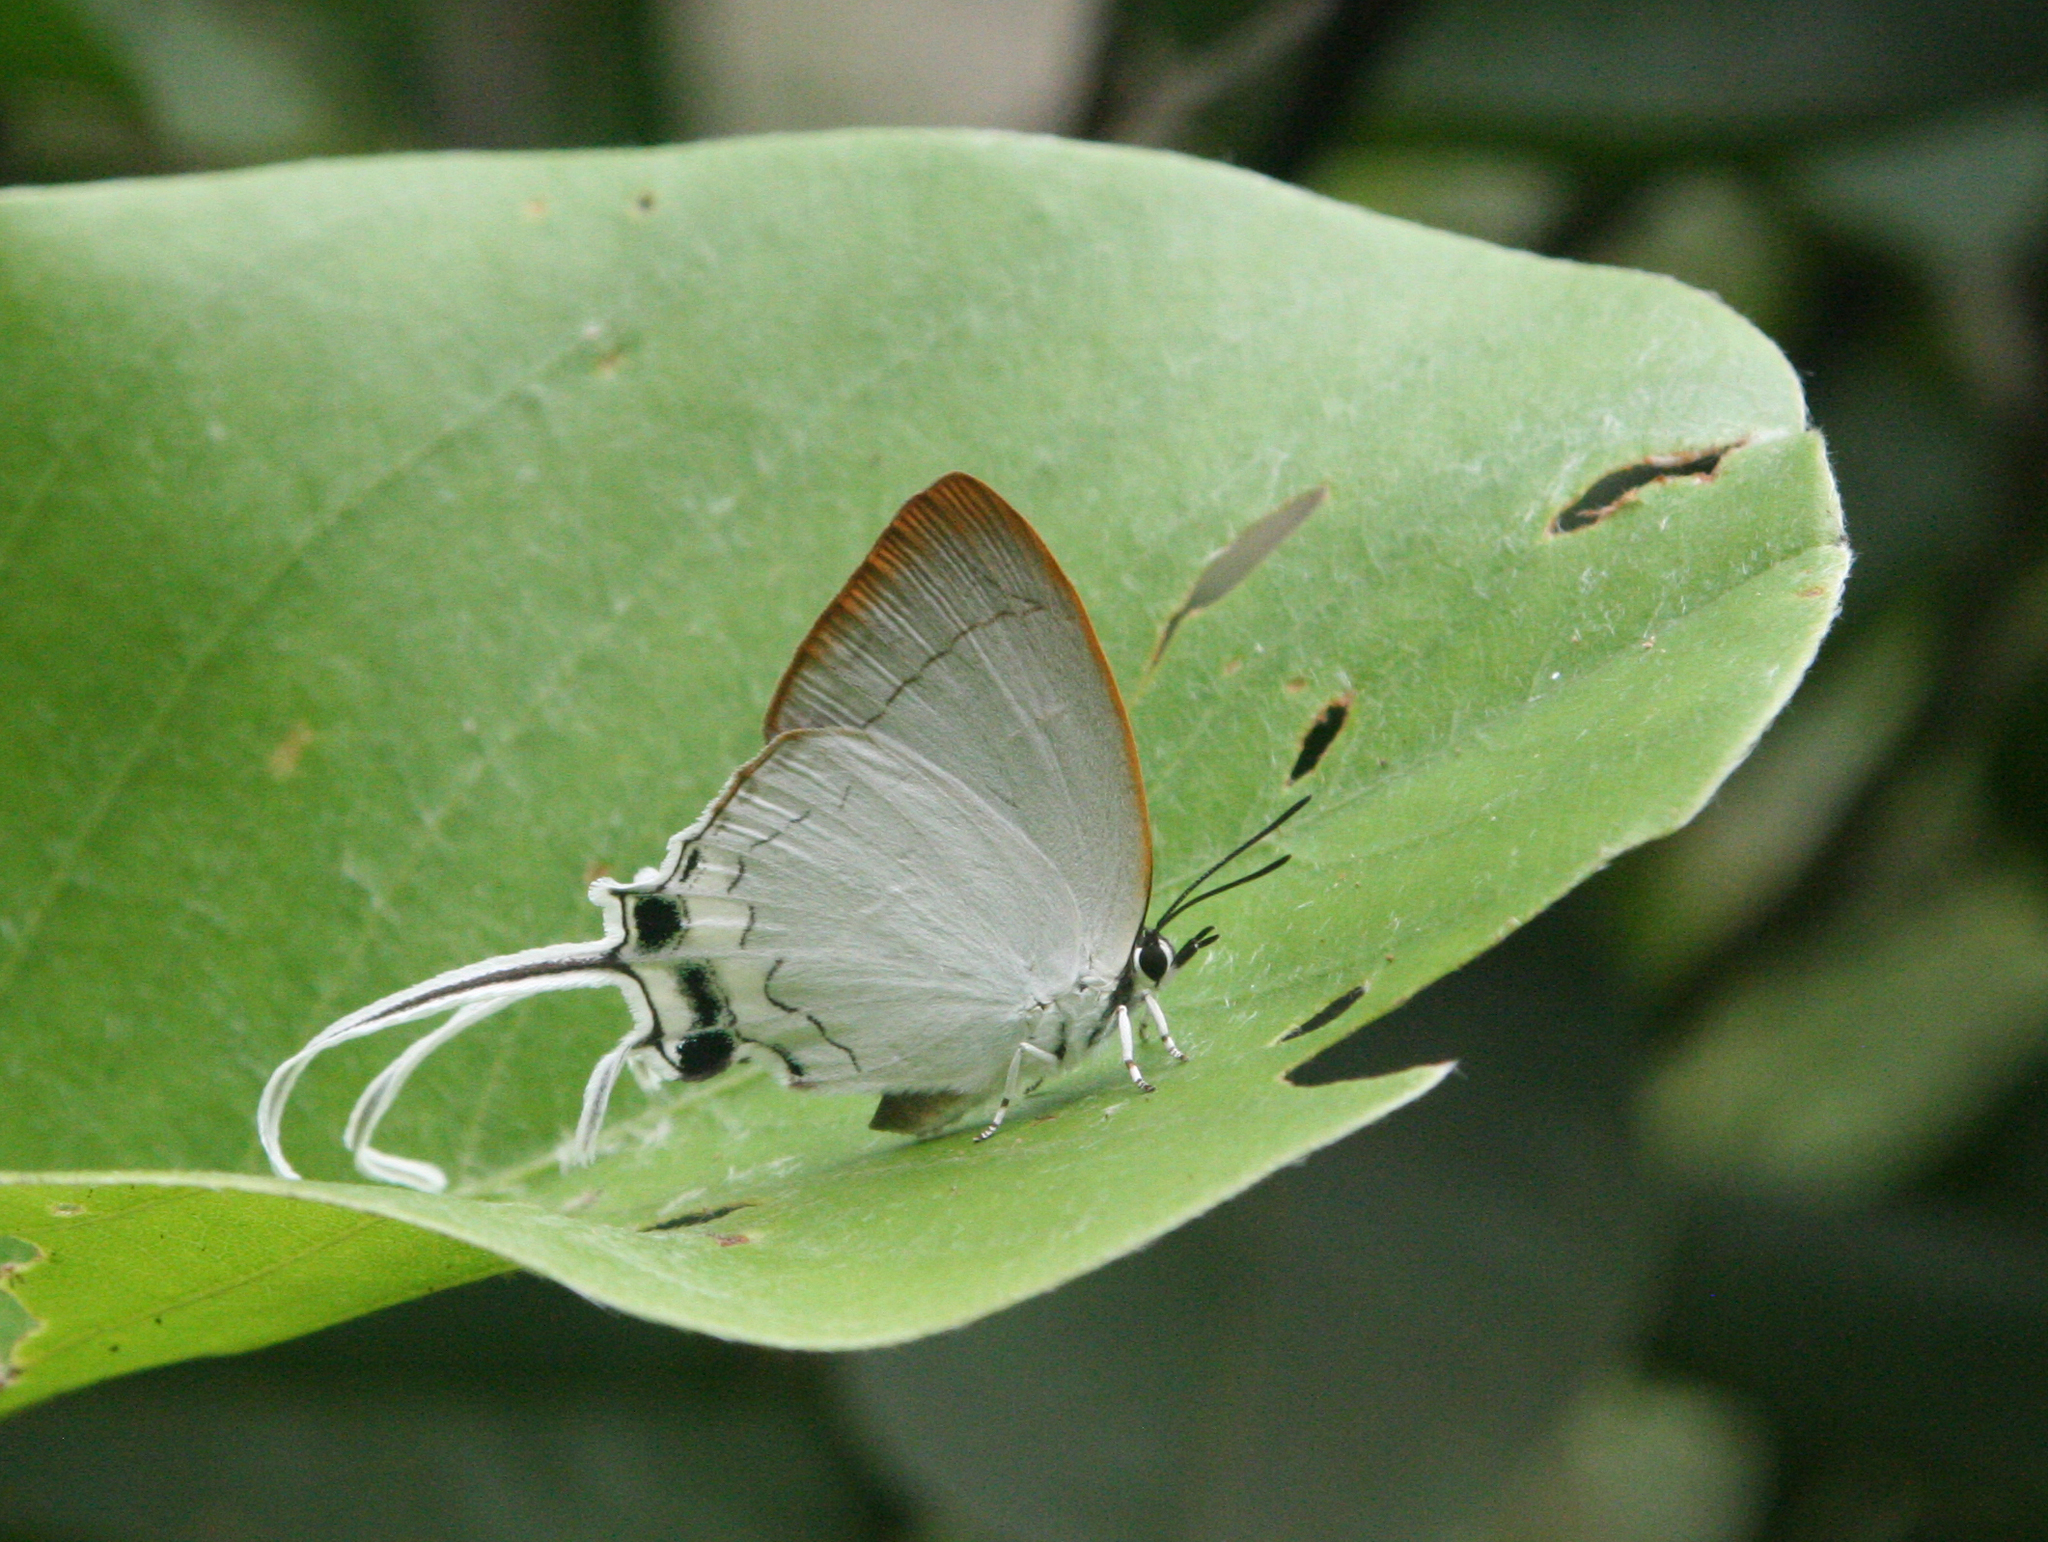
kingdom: Animalia
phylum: Arthropoda
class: Insecta
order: Lepidoptera
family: Lycaenidae
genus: Cheritra
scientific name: Cheritra freja
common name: Common imperial
